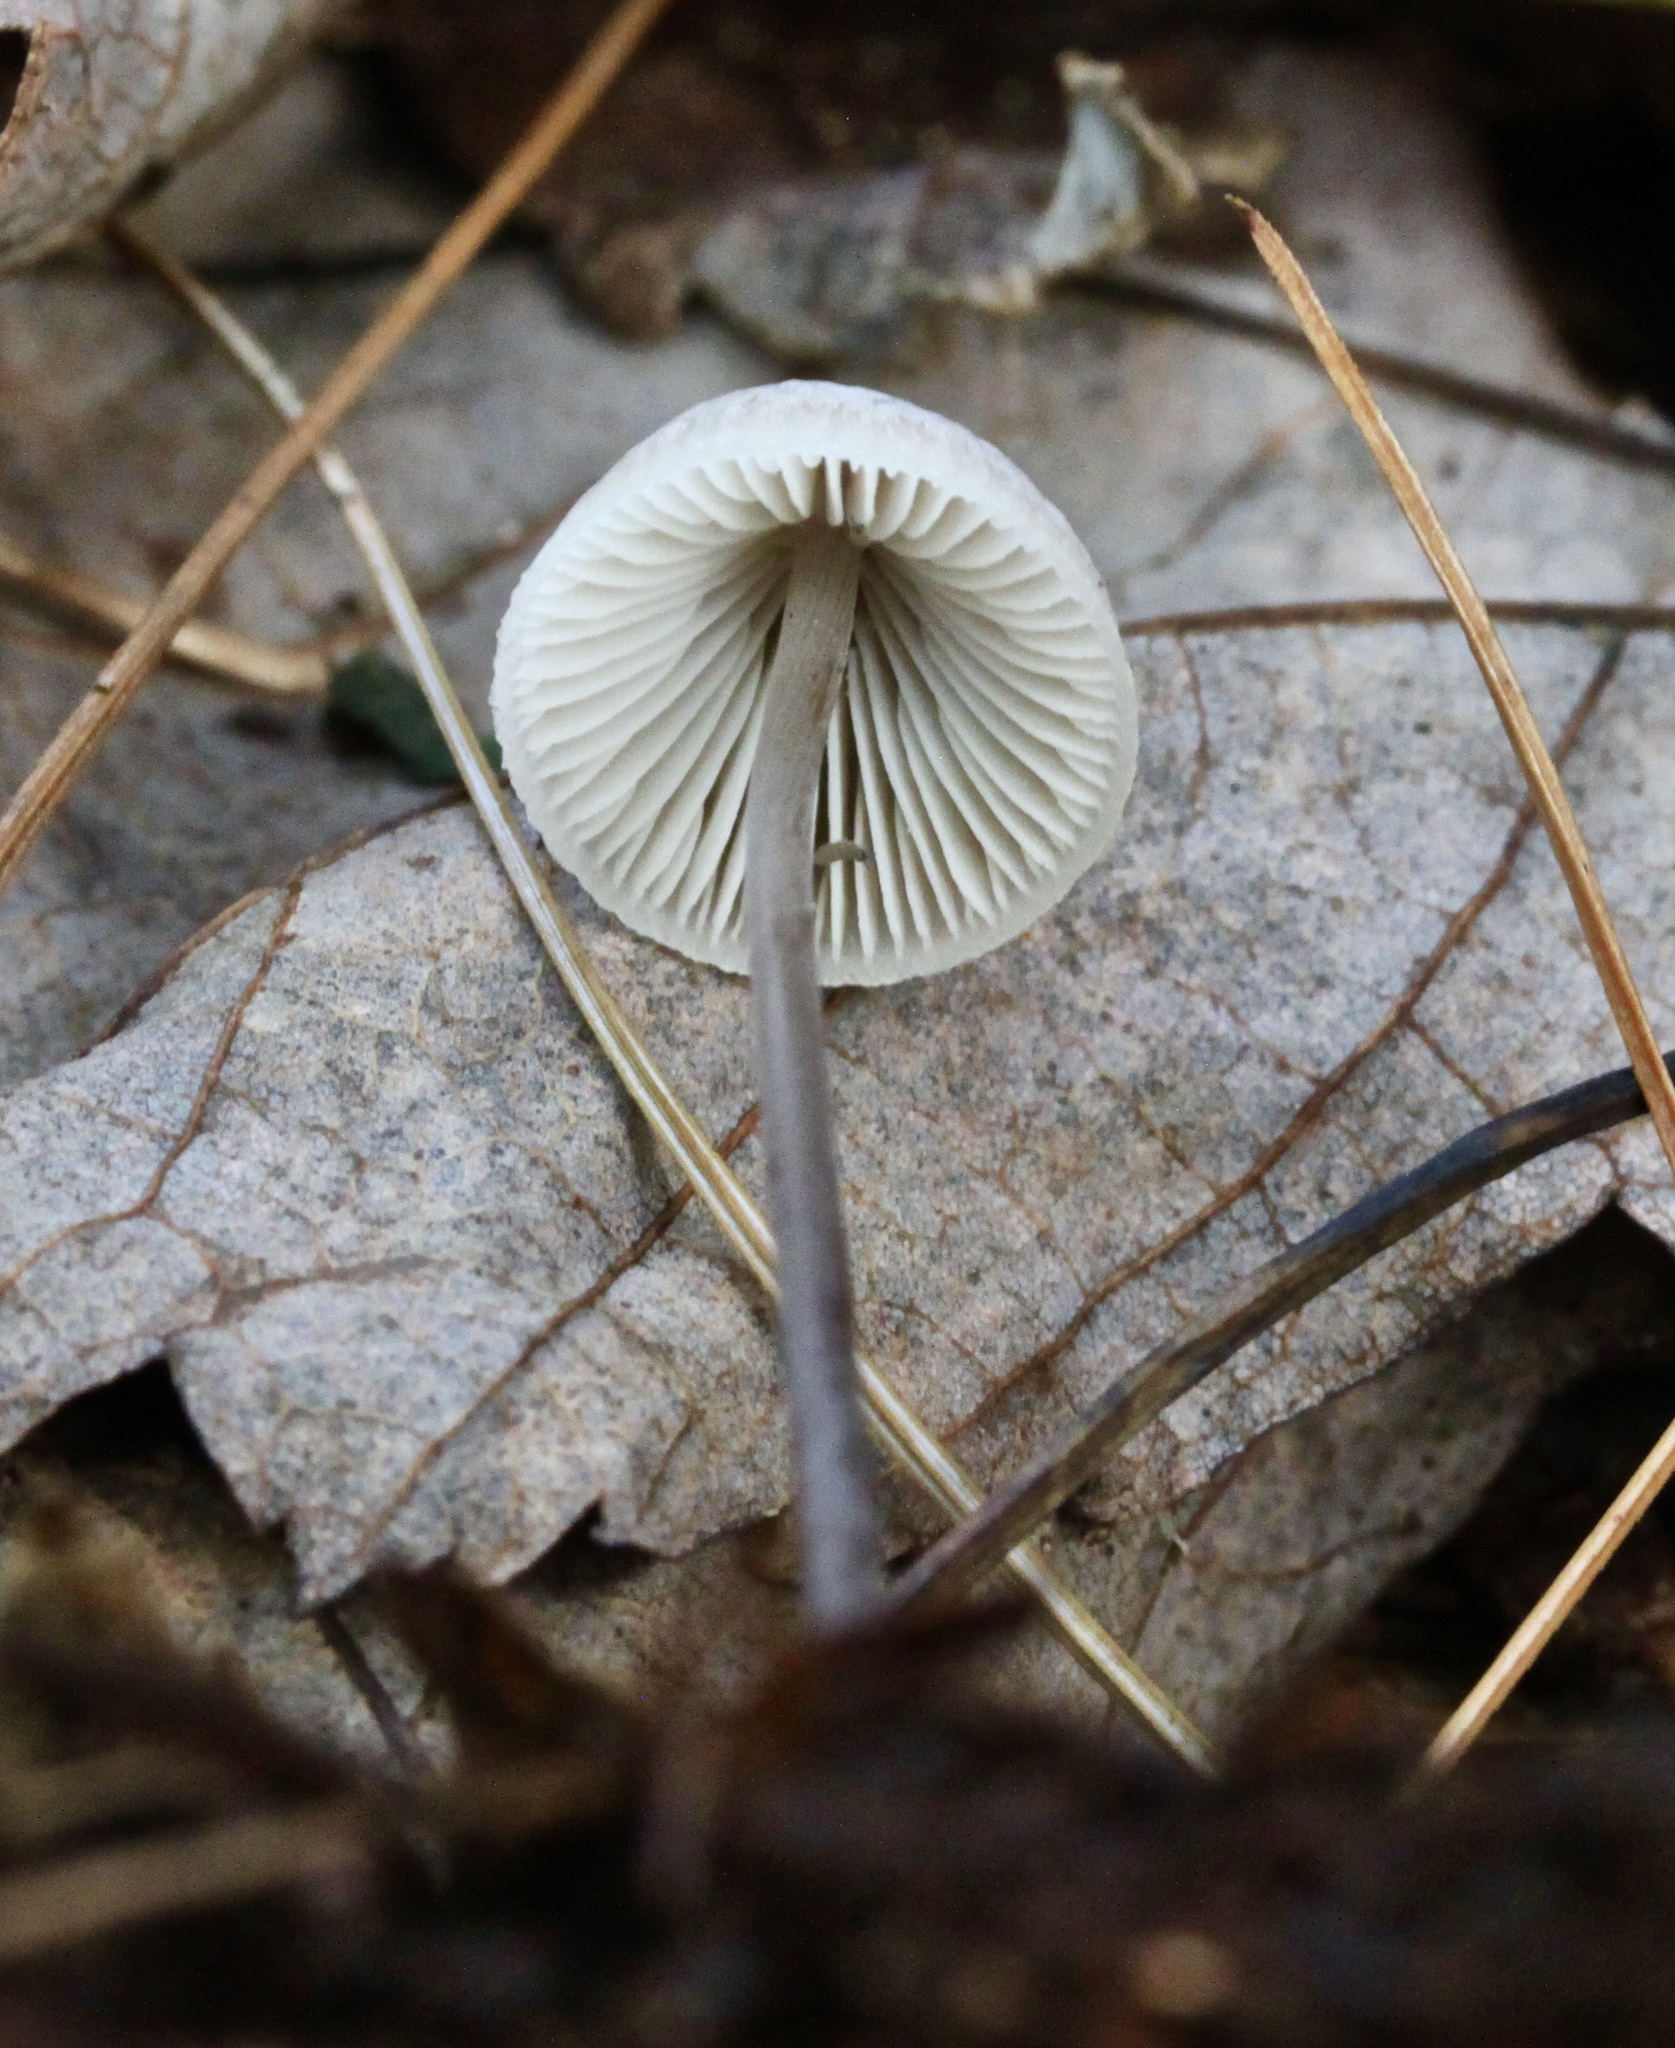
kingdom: Fungi
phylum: Basidiomycota
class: Agaricomycetes
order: Agaricales
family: Mycenaceae
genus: Mycena
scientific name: Mycena filopes
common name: Iodine bonnet
